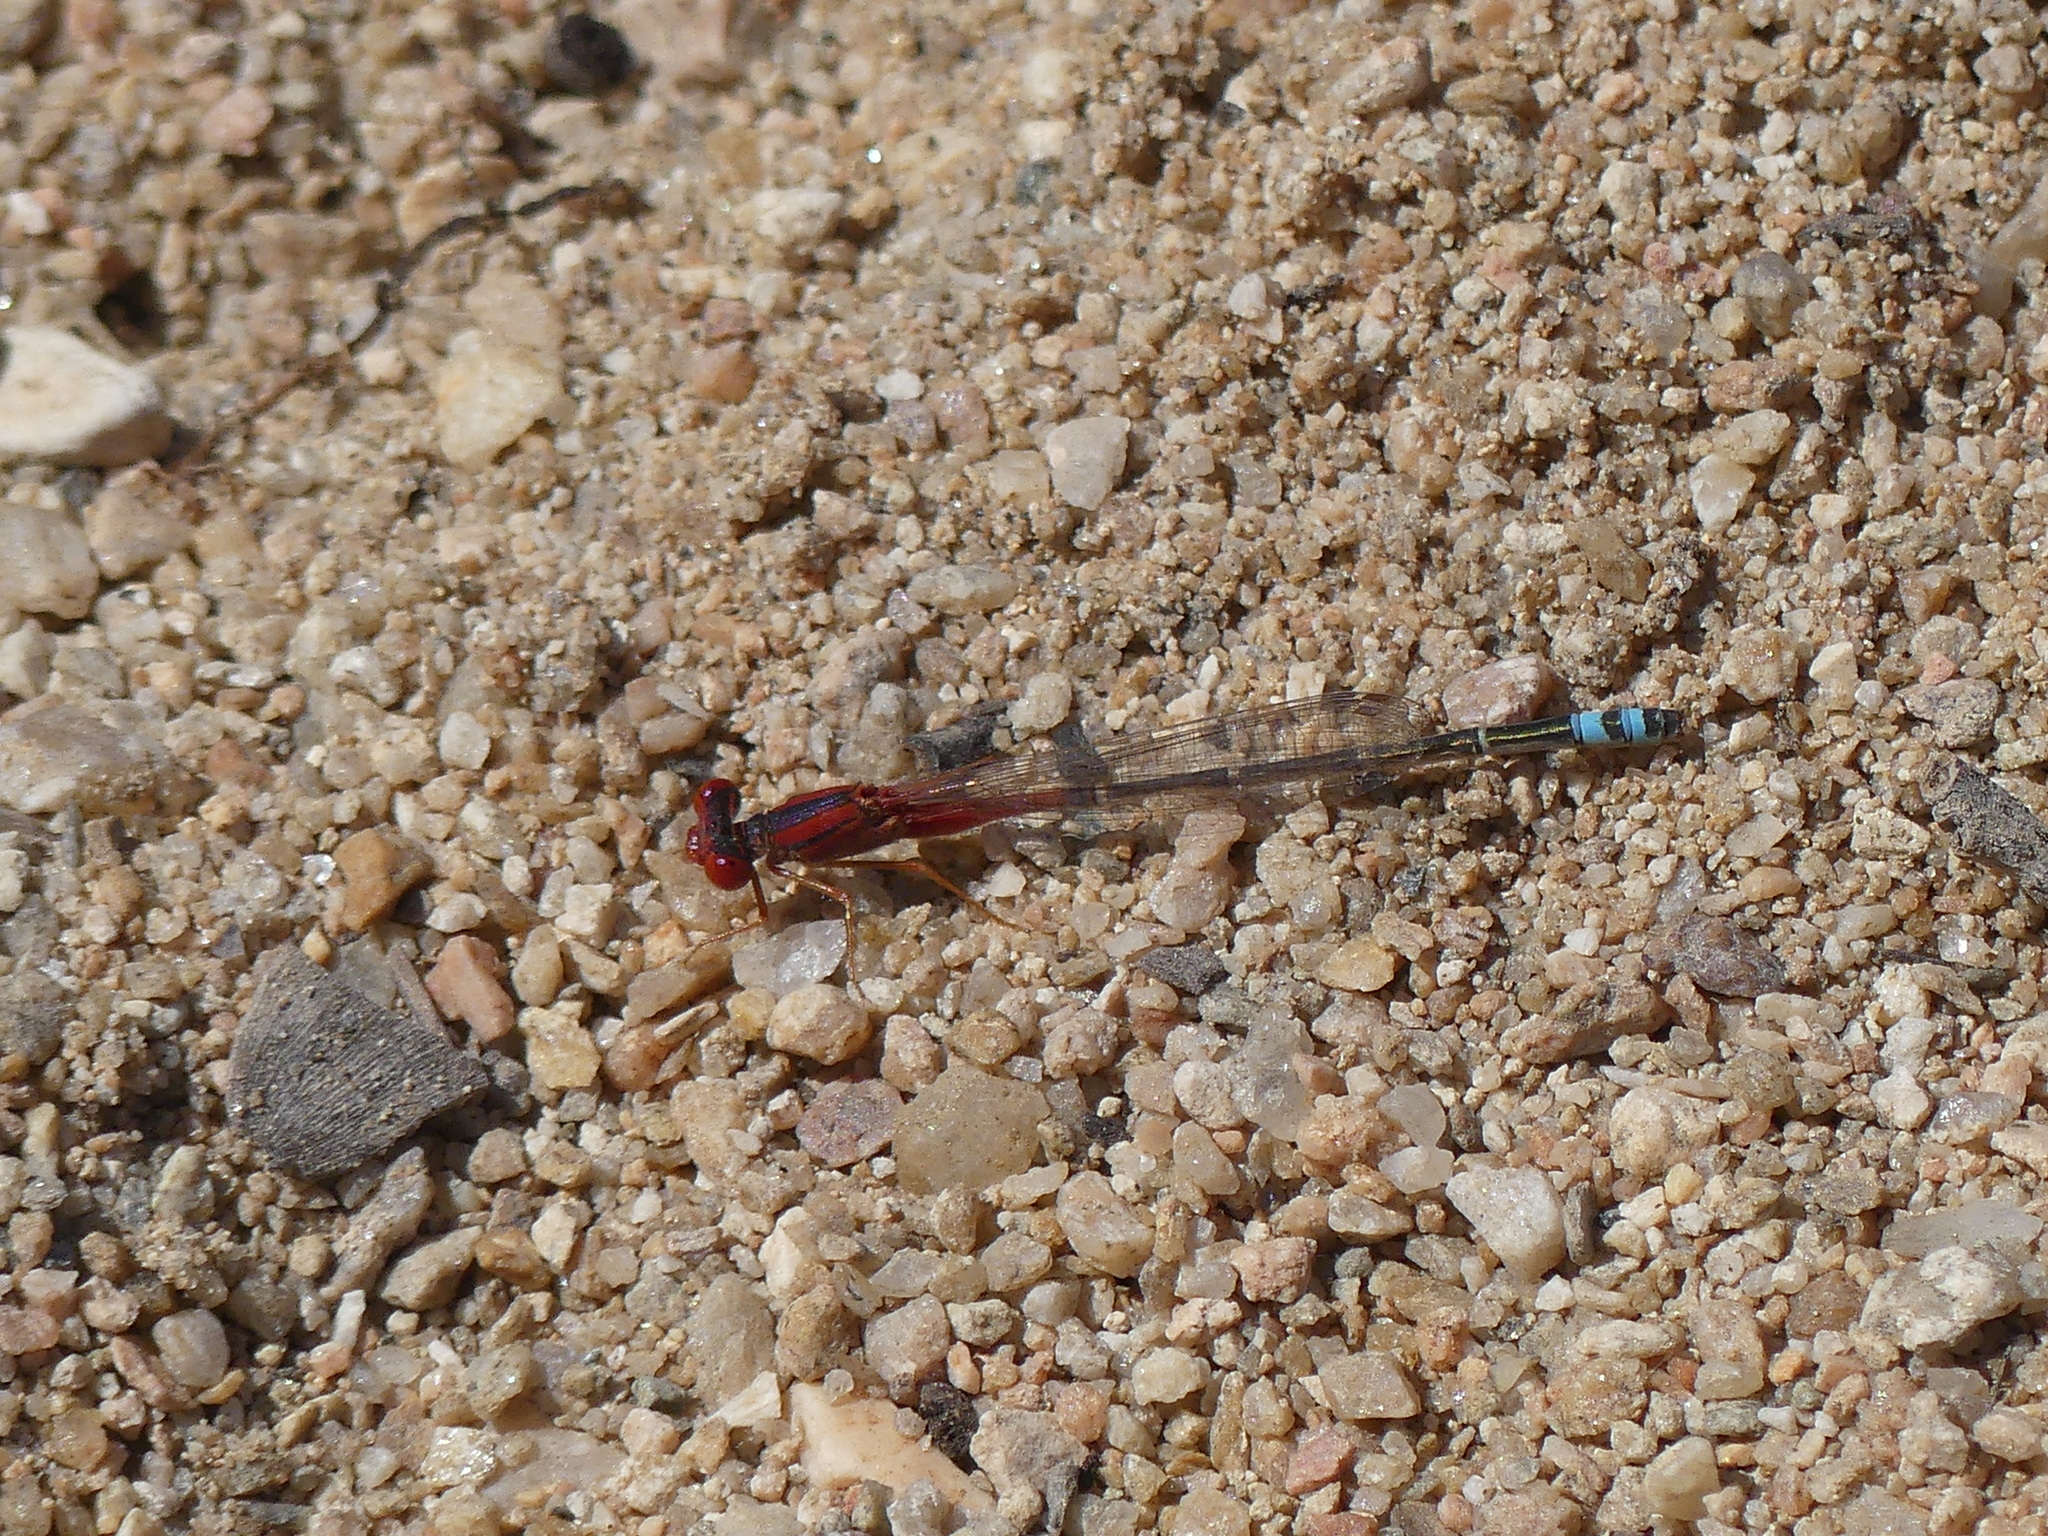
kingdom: Animalia
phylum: Arthropoda
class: Insecta
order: Odonata
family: Coenagrionidae
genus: Xanthagrion
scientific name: Xanthagrion erythroneurum
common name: Red and blue damsel
